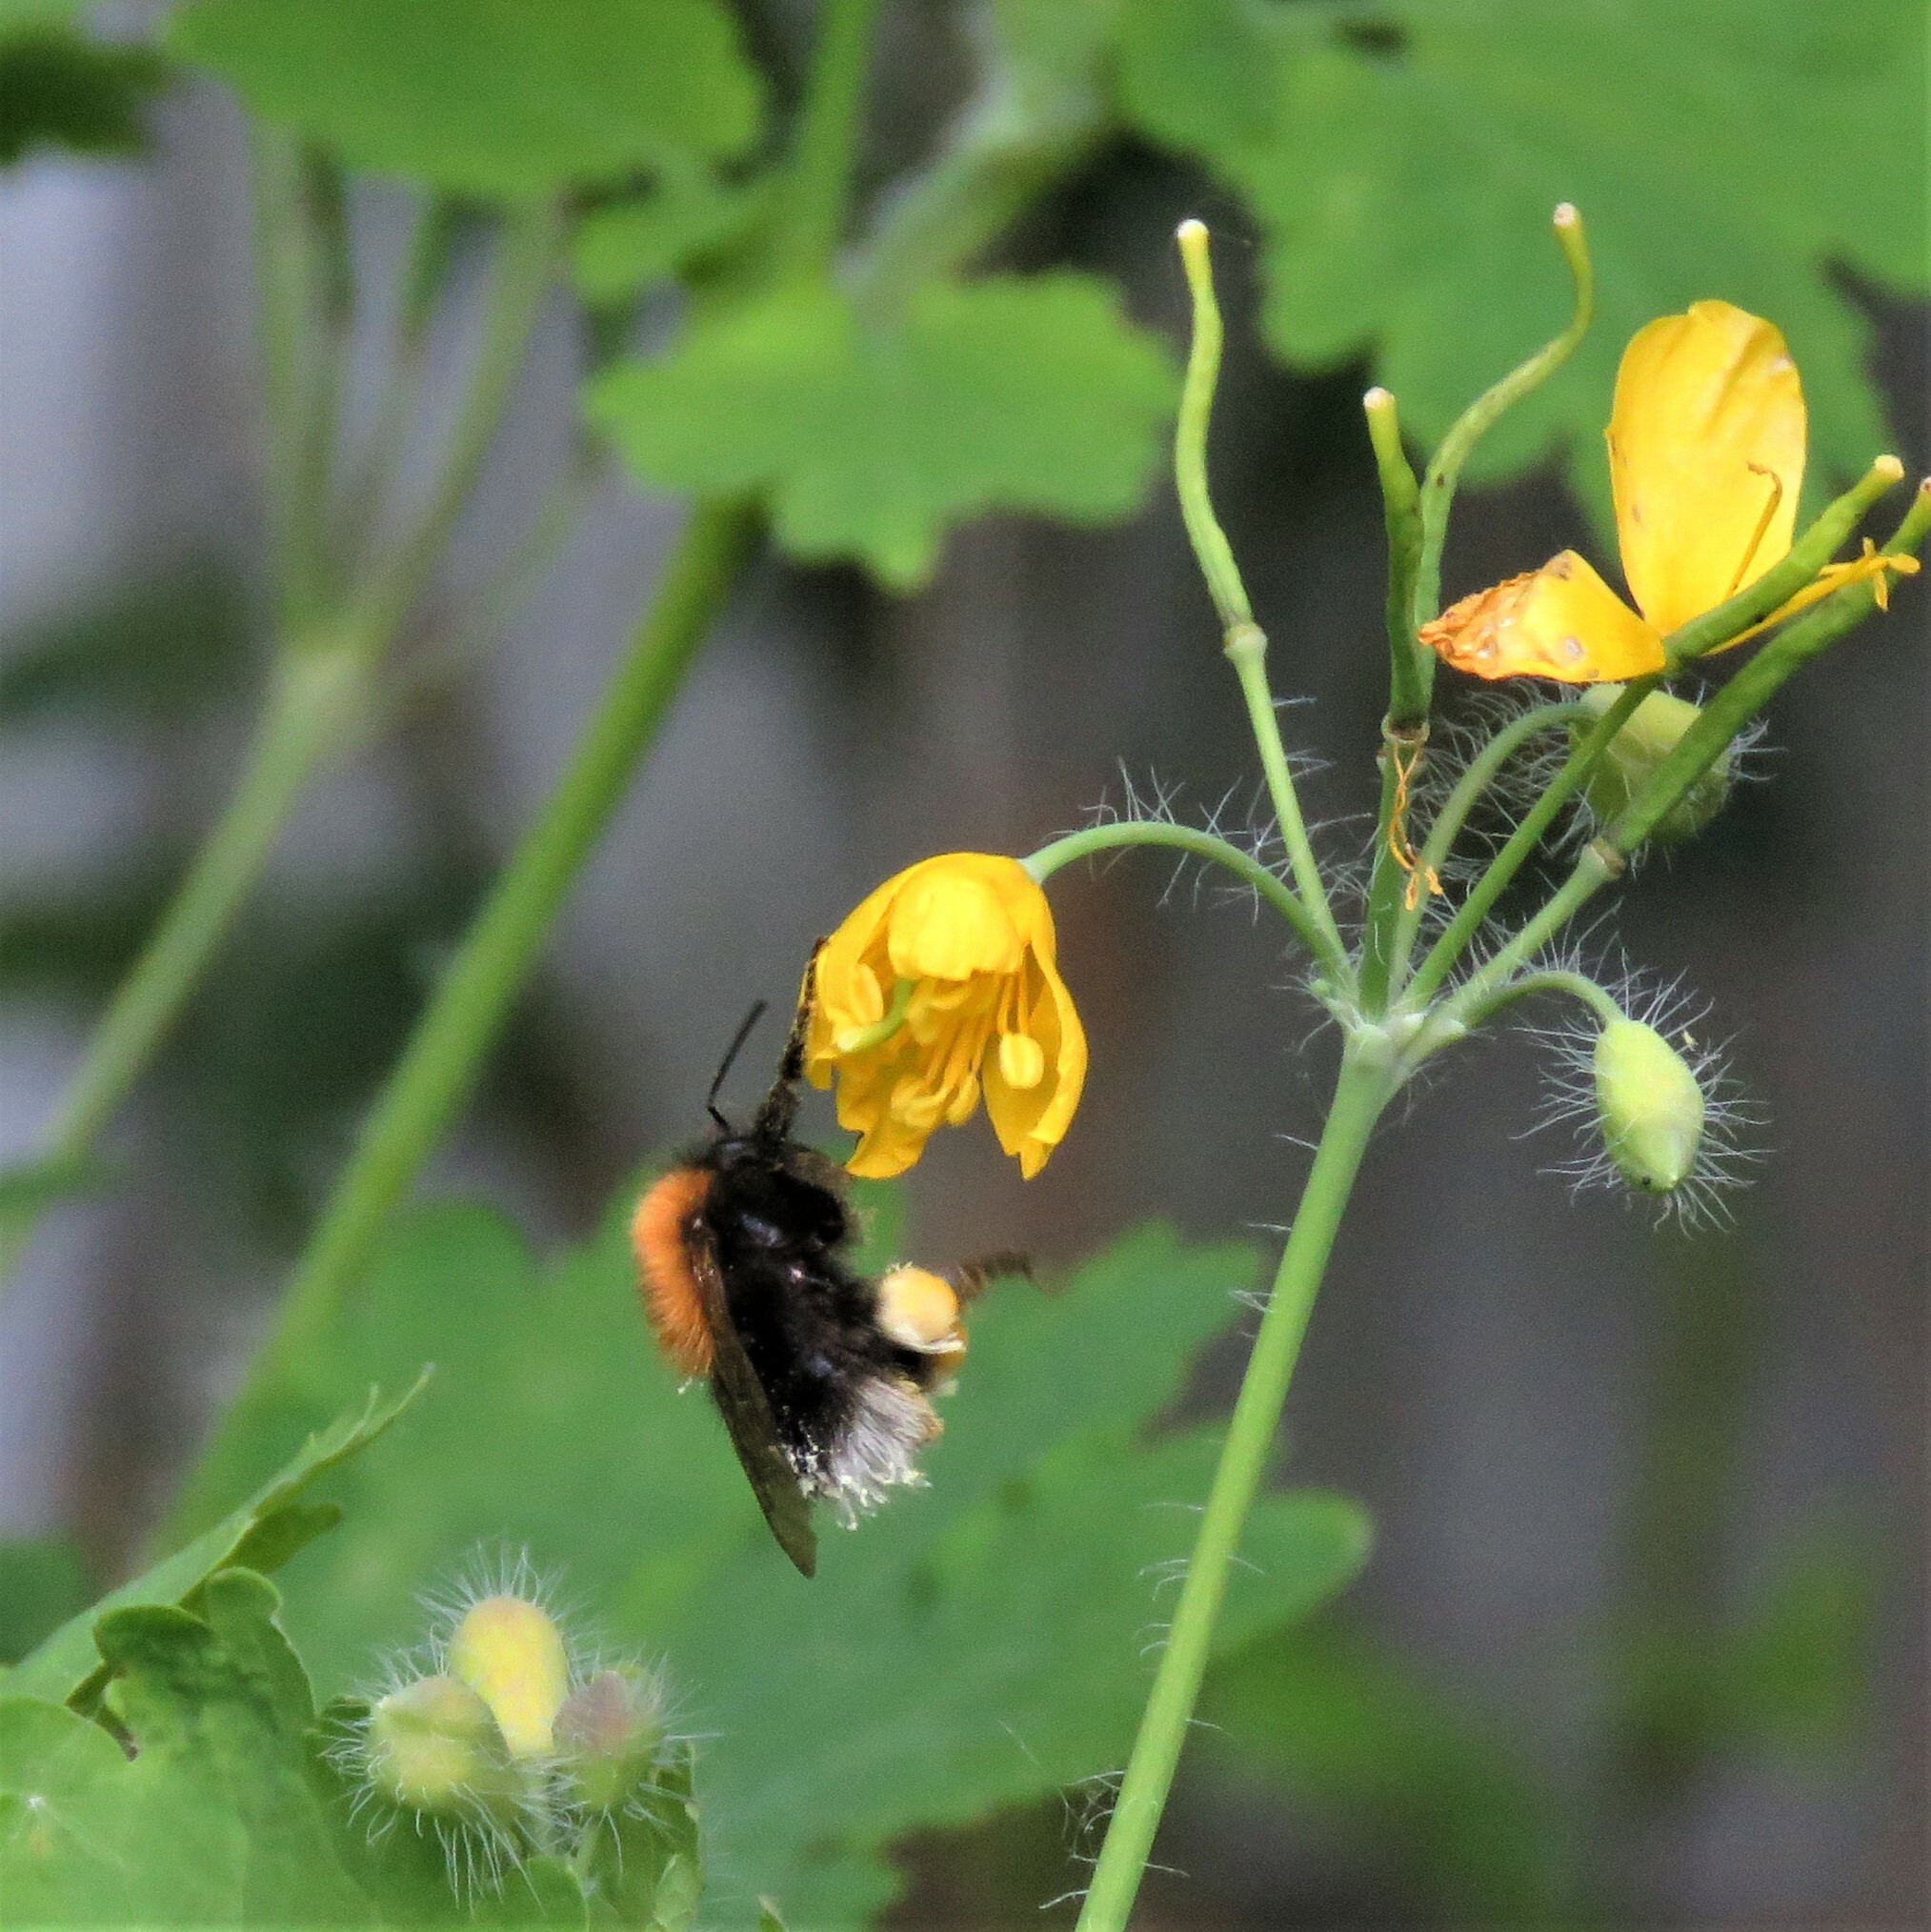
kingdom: Animalia
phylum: Arthropoda
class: Insecta
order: Hymenoptera
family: Apidae
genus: Bombus
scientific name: Bombus hypnorum
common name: New garden bumblebee
